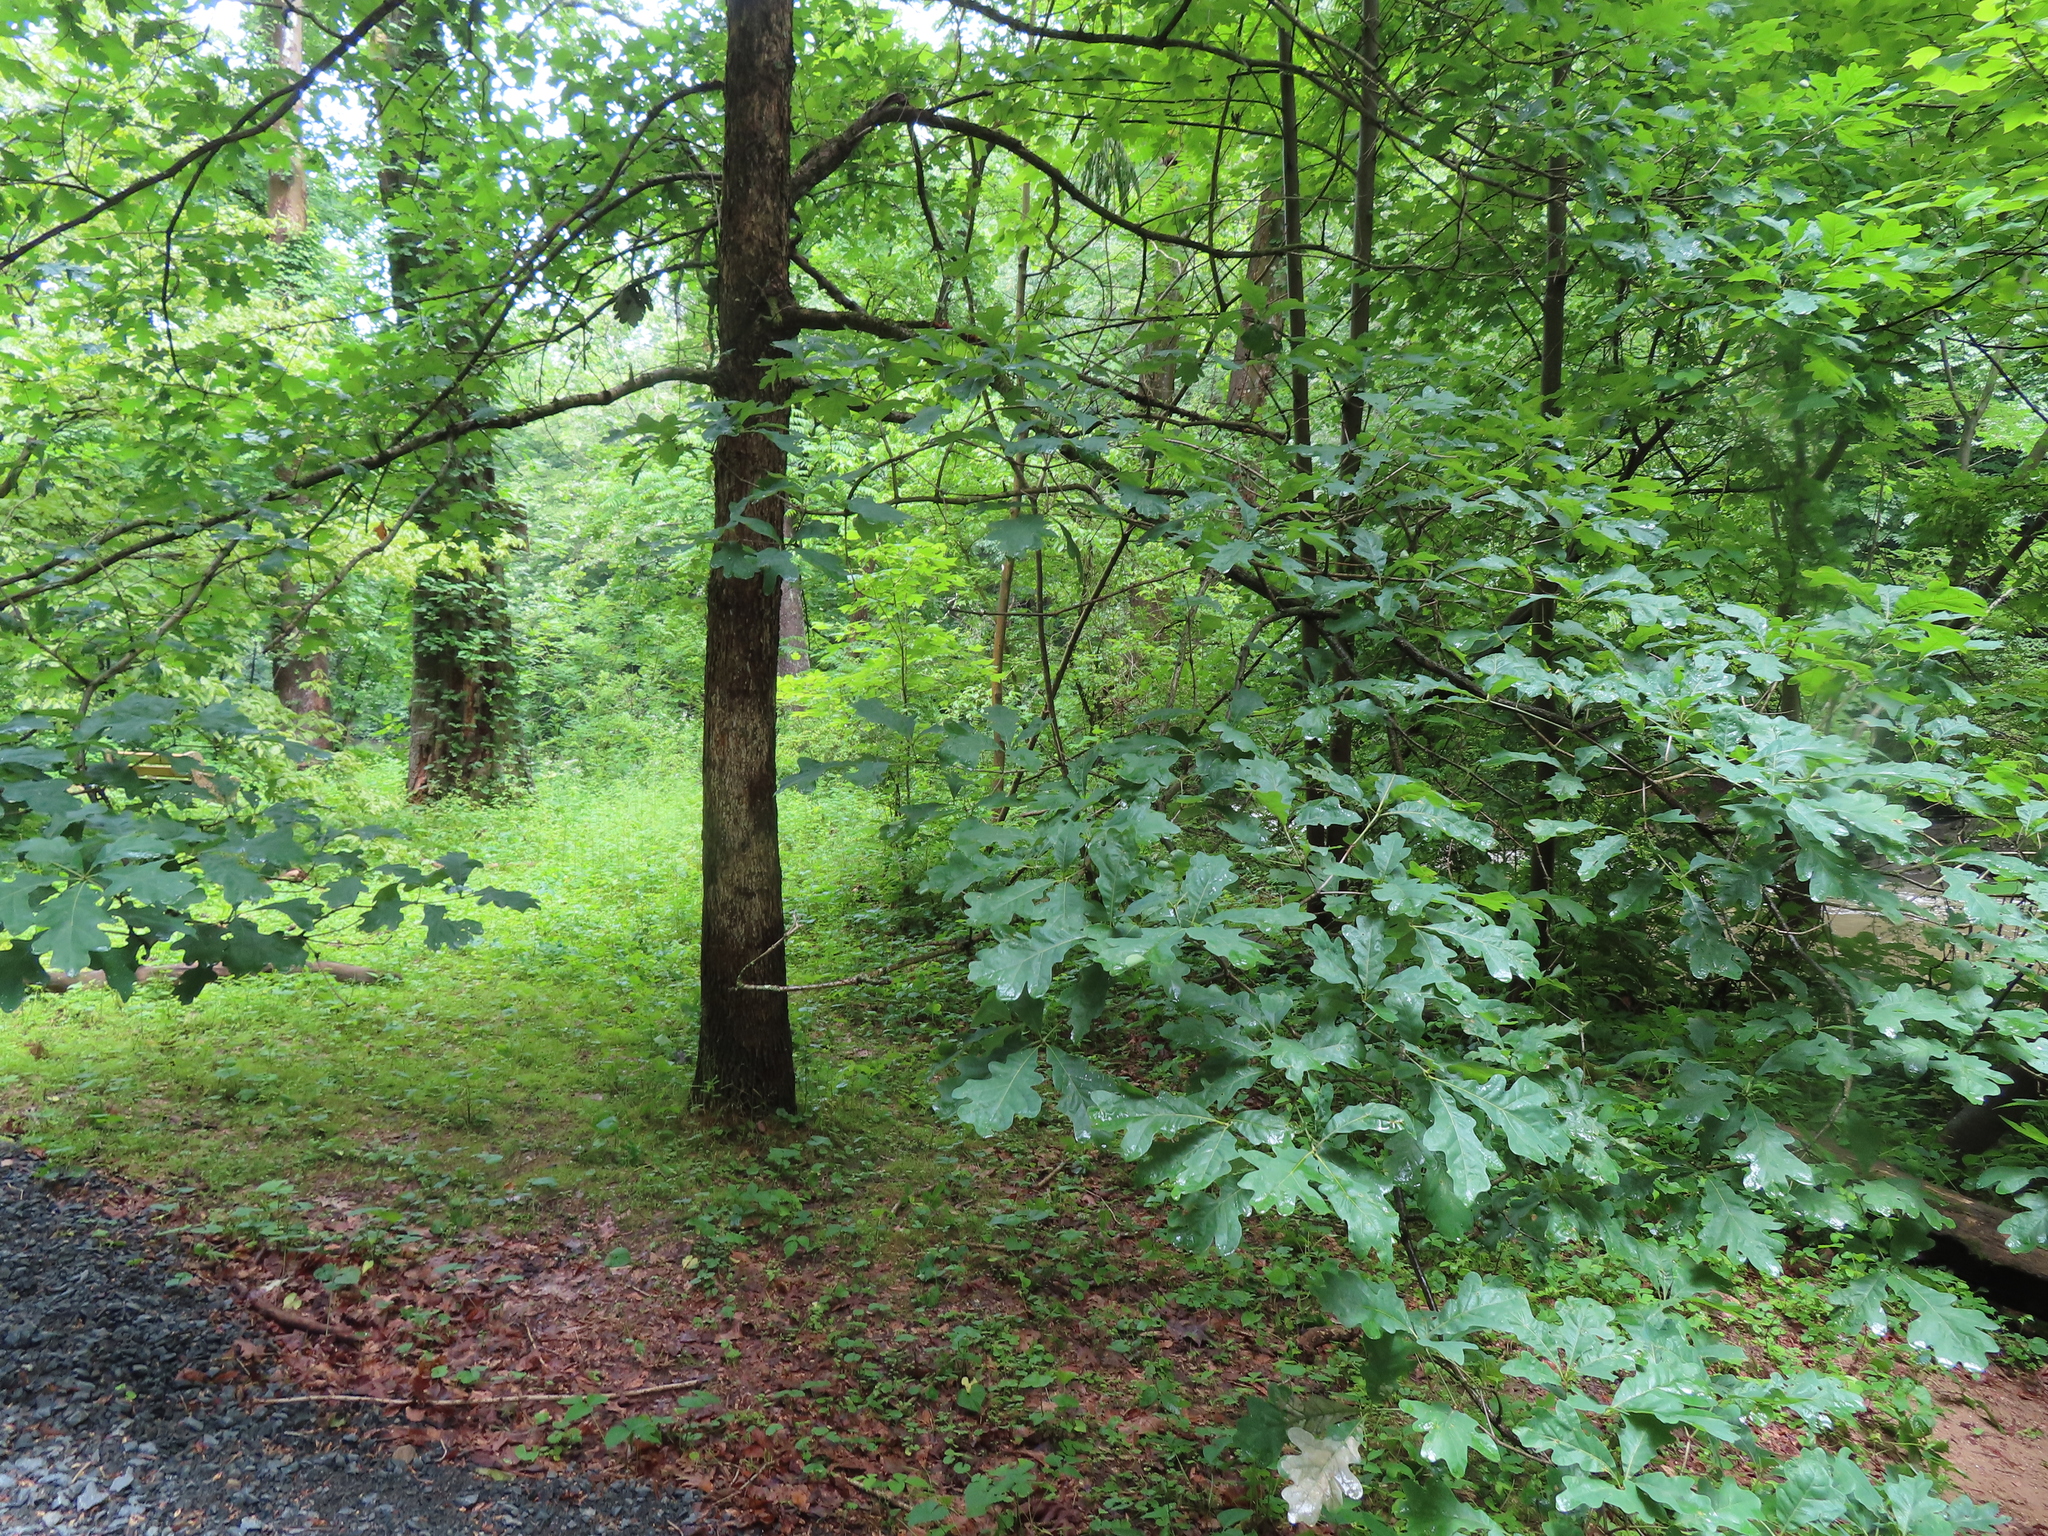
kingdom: Plantae
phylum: Tracheophyta
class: Magnoliopsida
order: Fagales
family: Fagaceae
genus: Quercus
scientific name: Quercus alba
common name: White oak
